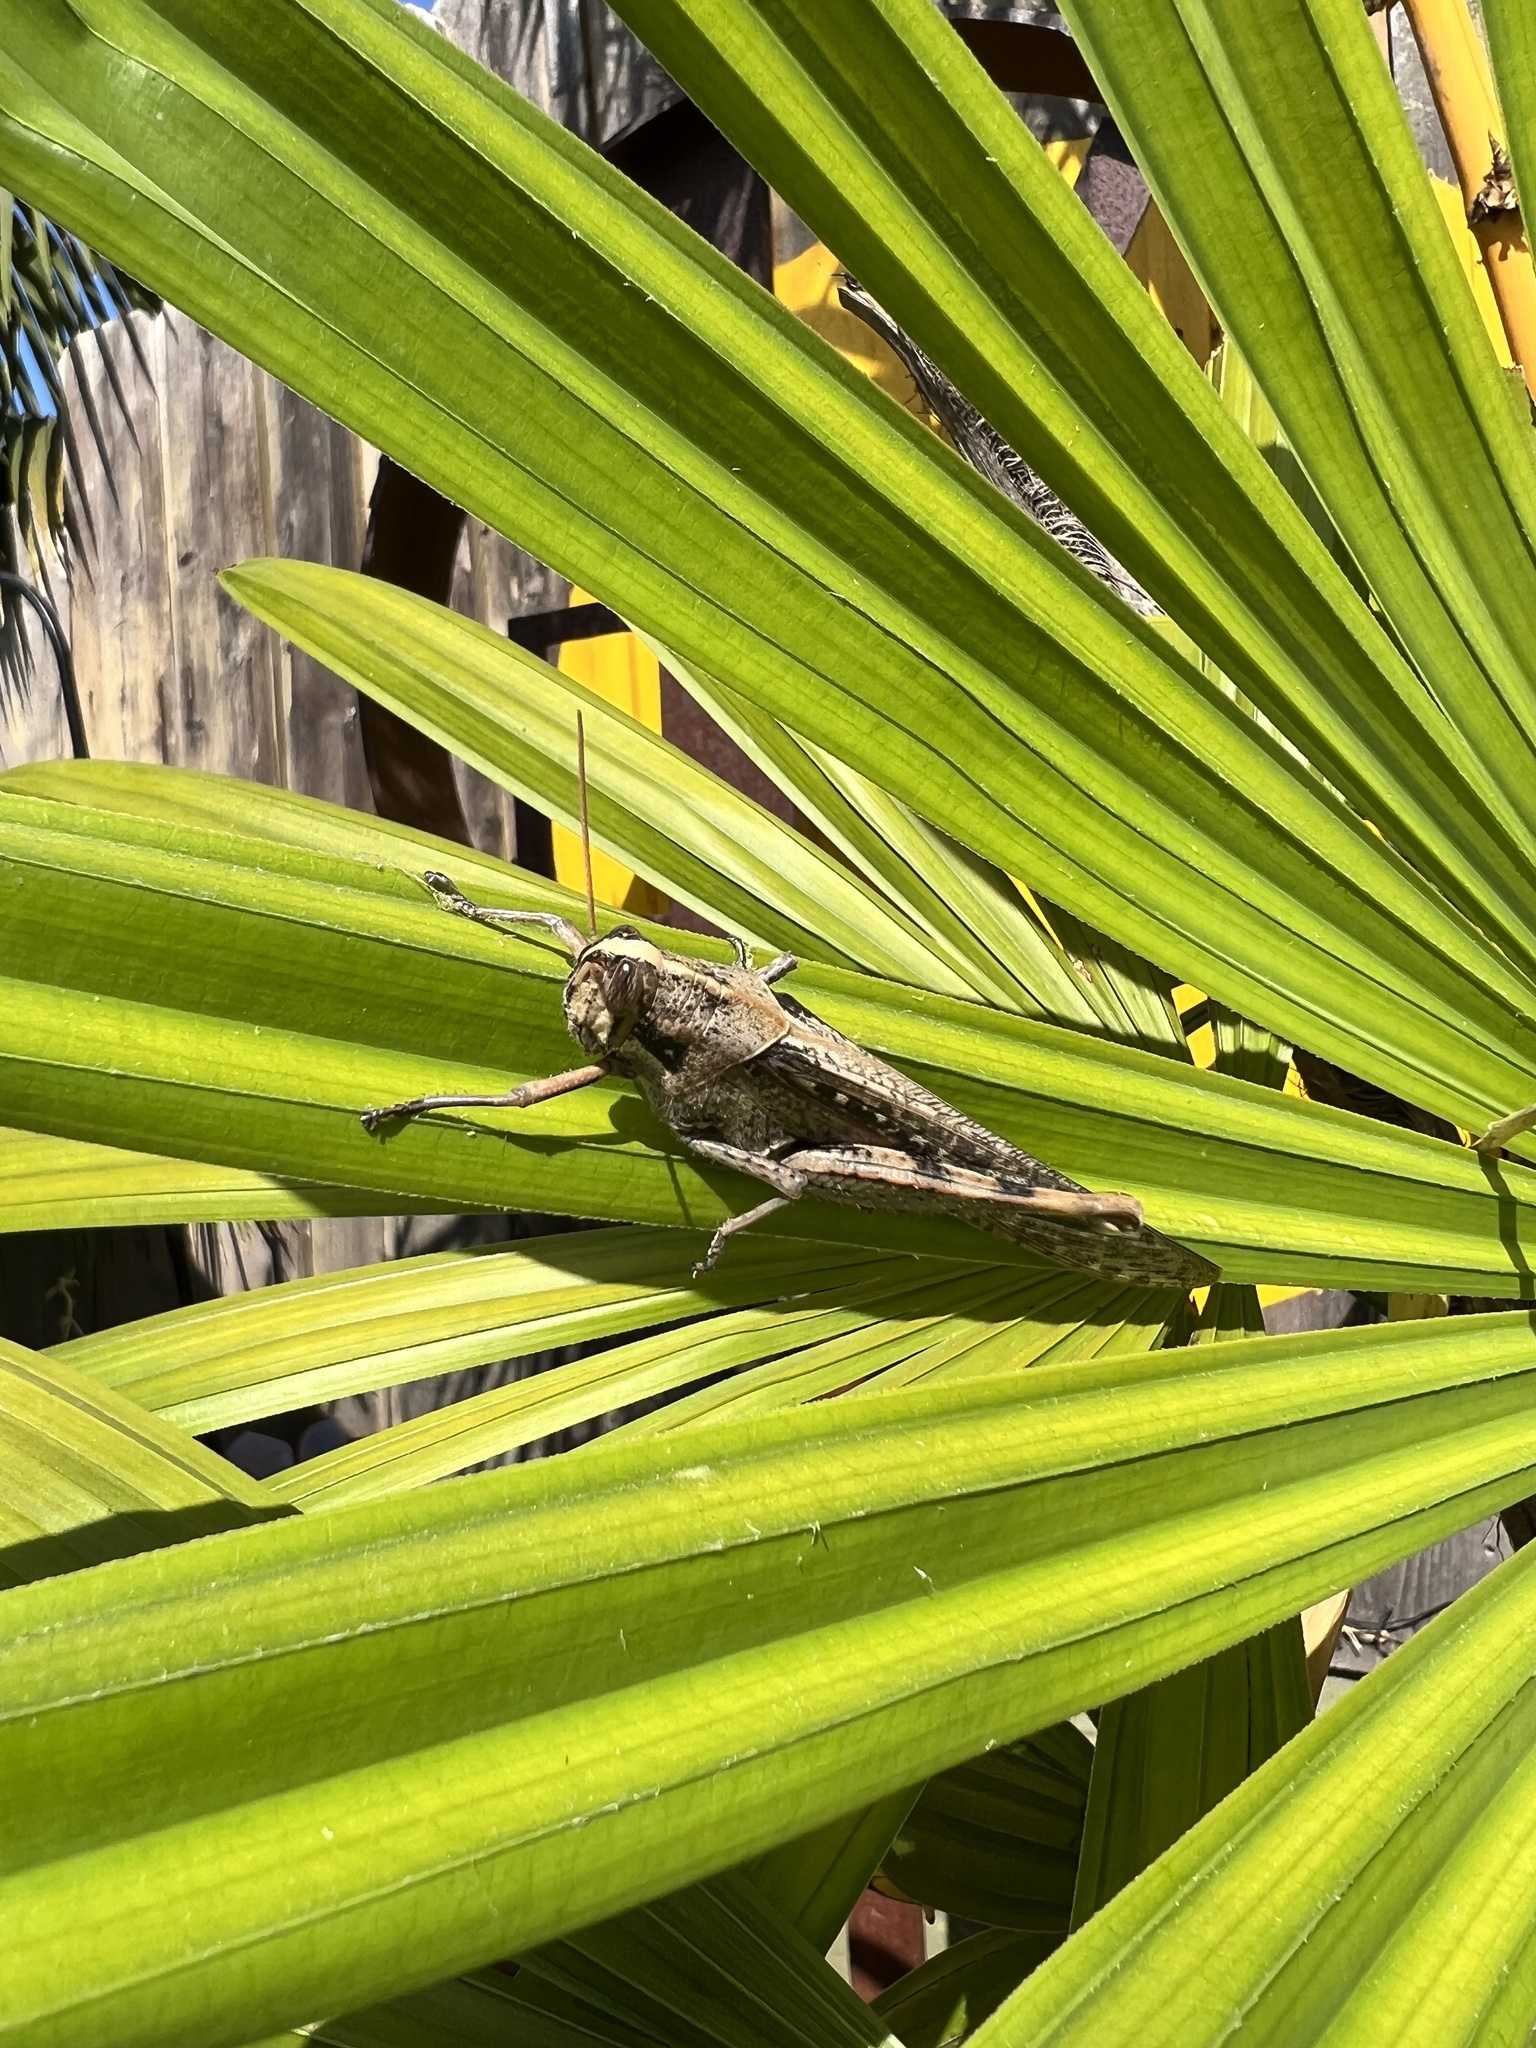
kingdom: Animalia
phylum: Arthropoda
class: Insecta
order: Orthoptera
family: Acrididae
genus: Schistocerca
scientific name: Schistocerca nitens
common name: Vagrant grasshopper
